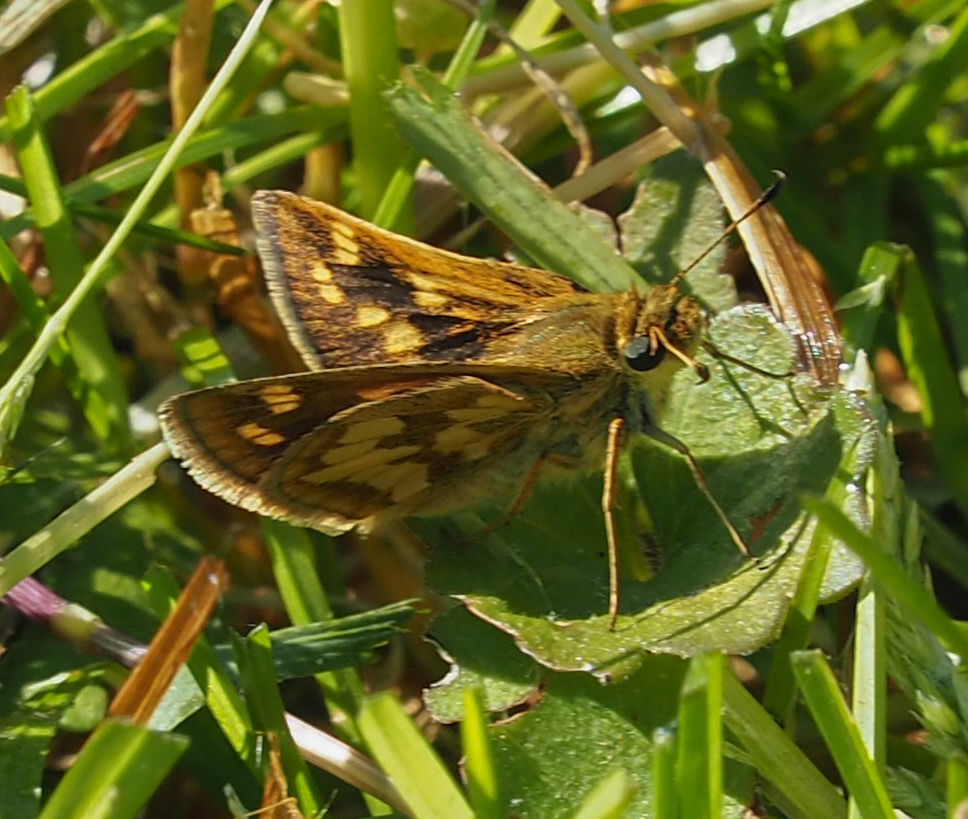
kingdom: Animalia
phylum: Arthropoda
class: Insecta
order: Lepidoptera
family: Hesperiidae
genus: Polites
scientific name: Polites coras
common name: Peck's skipper
